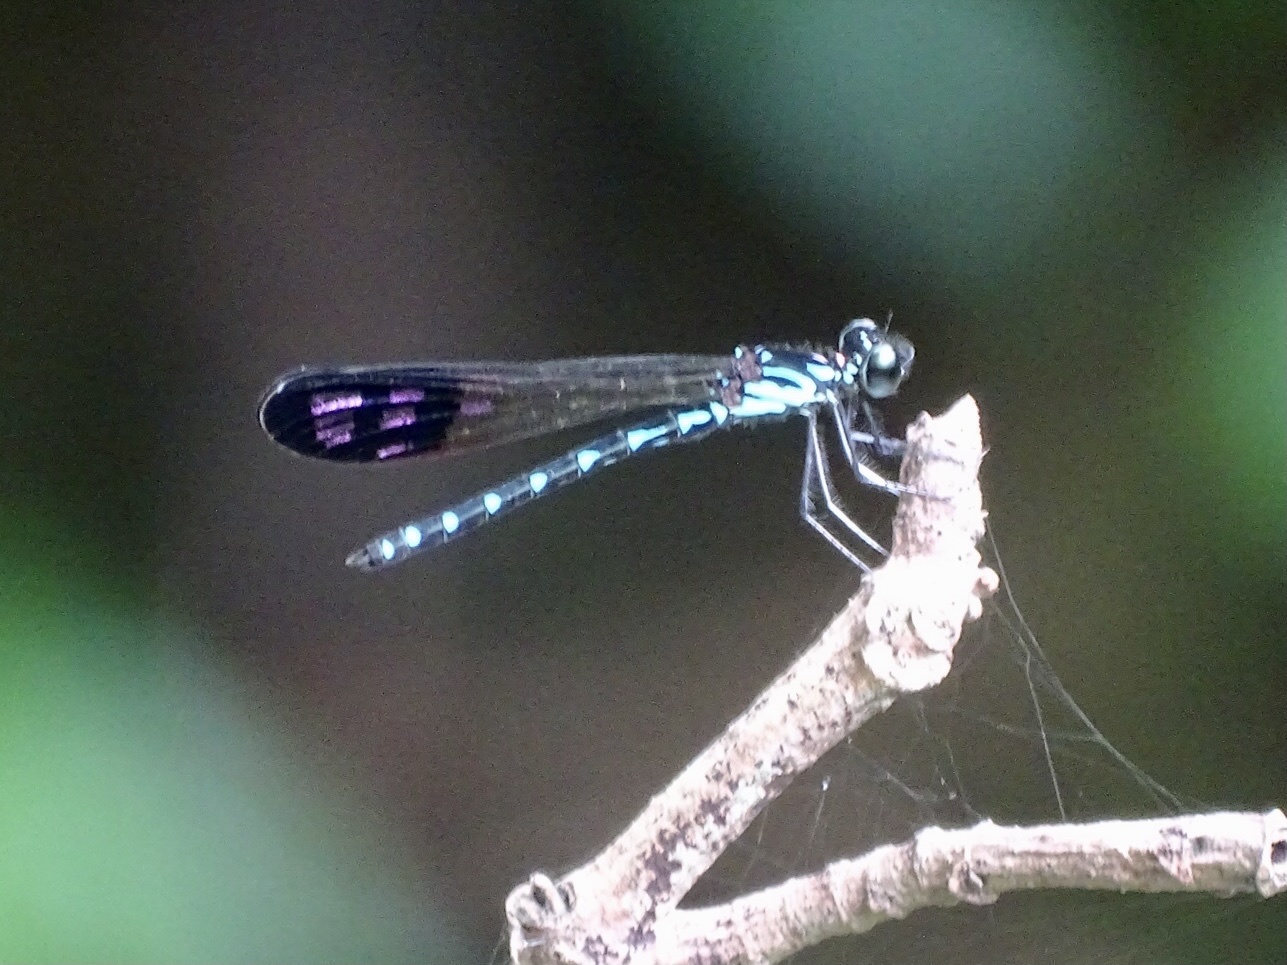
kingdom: Animalia
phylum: Arthropoda
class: Insecta
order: Odonata
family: Chlorocyphidae
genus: Heliocypha
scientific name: Heliocypha perforata
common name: Common blue jewel
